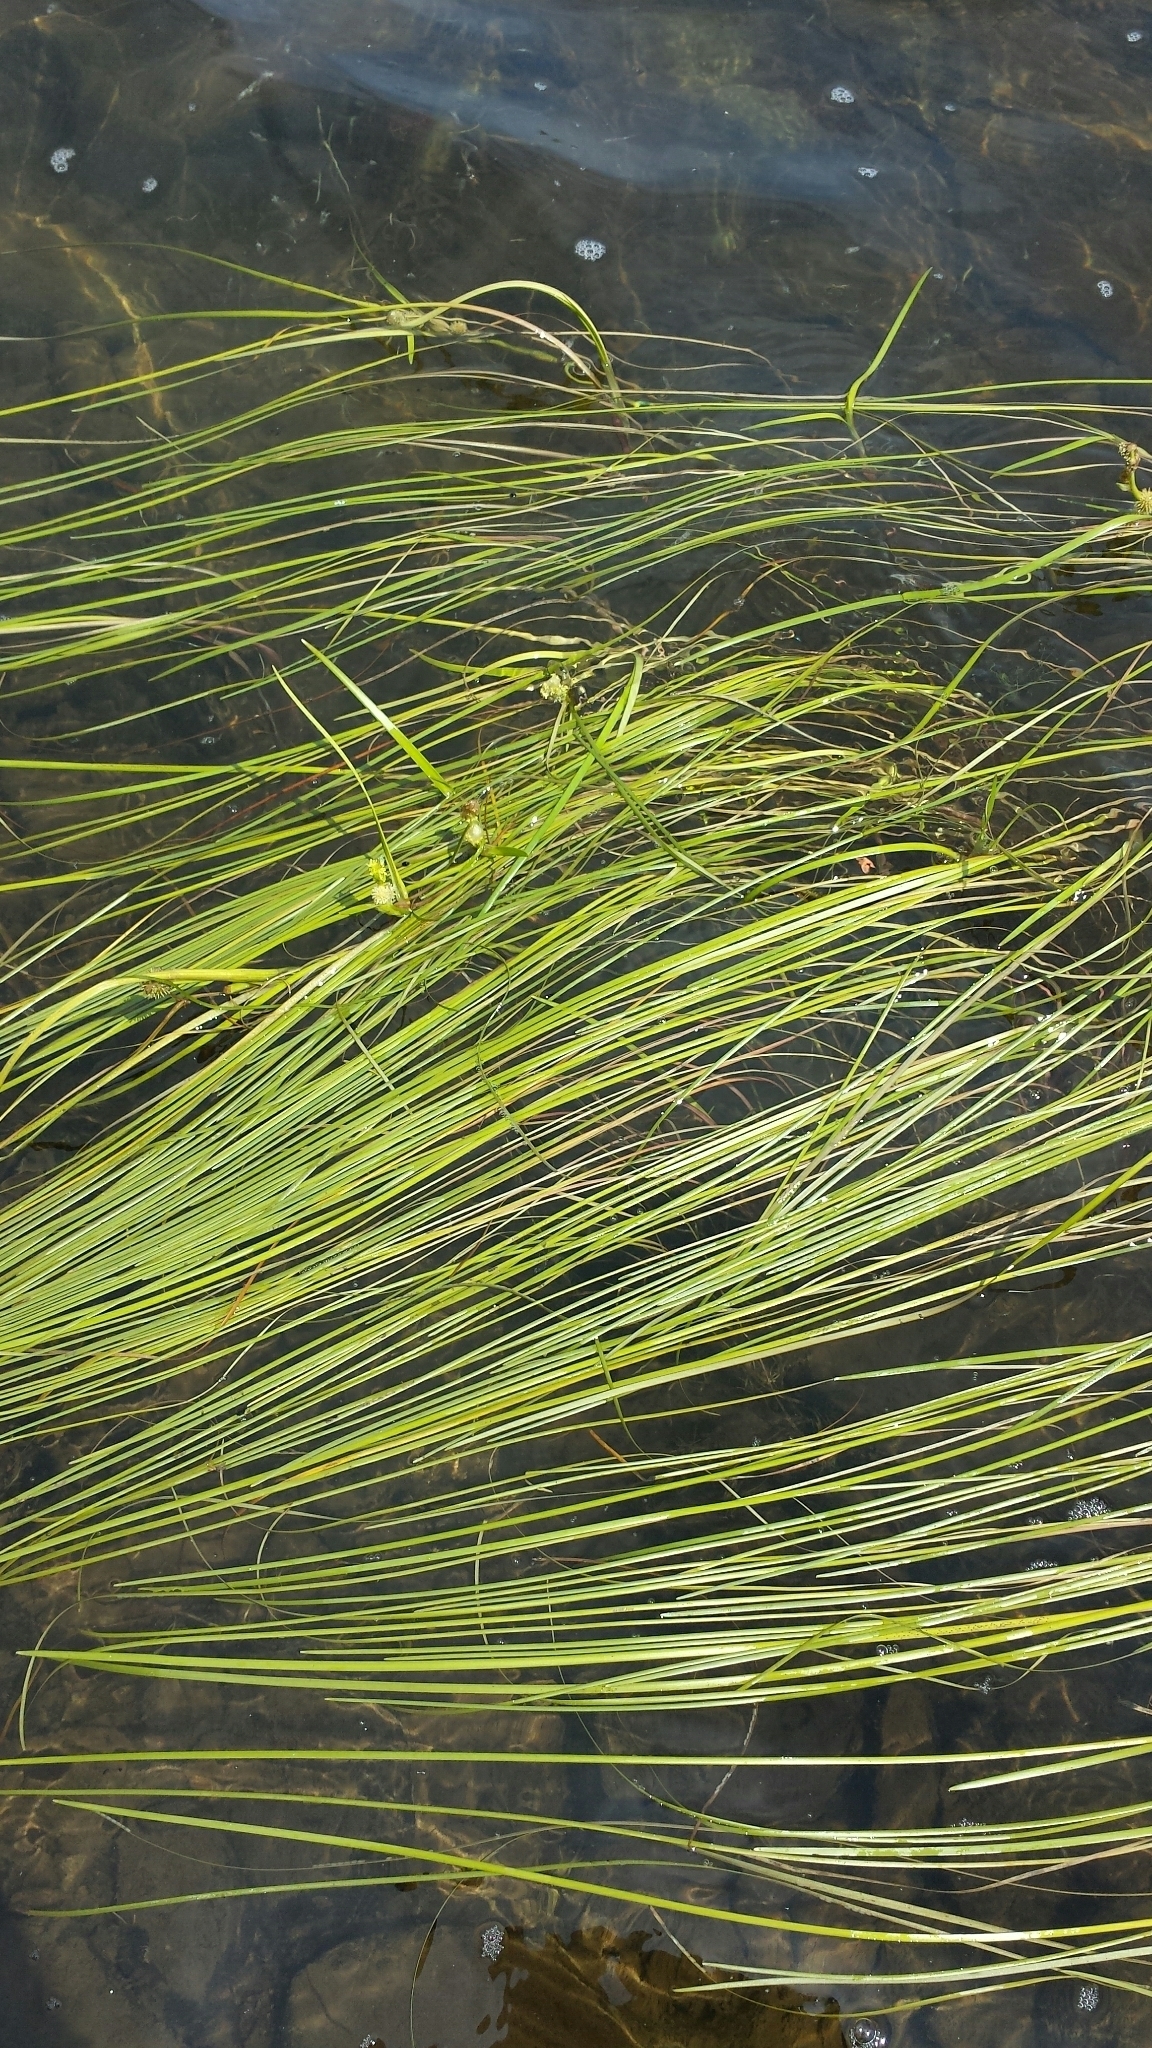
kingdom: Plantae
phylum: Tracheophyta
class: Liliopsida
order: Poales
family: Typhaceae
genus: Sparganium
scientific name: Sparganium angustifolium
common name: Floating bur-reed
